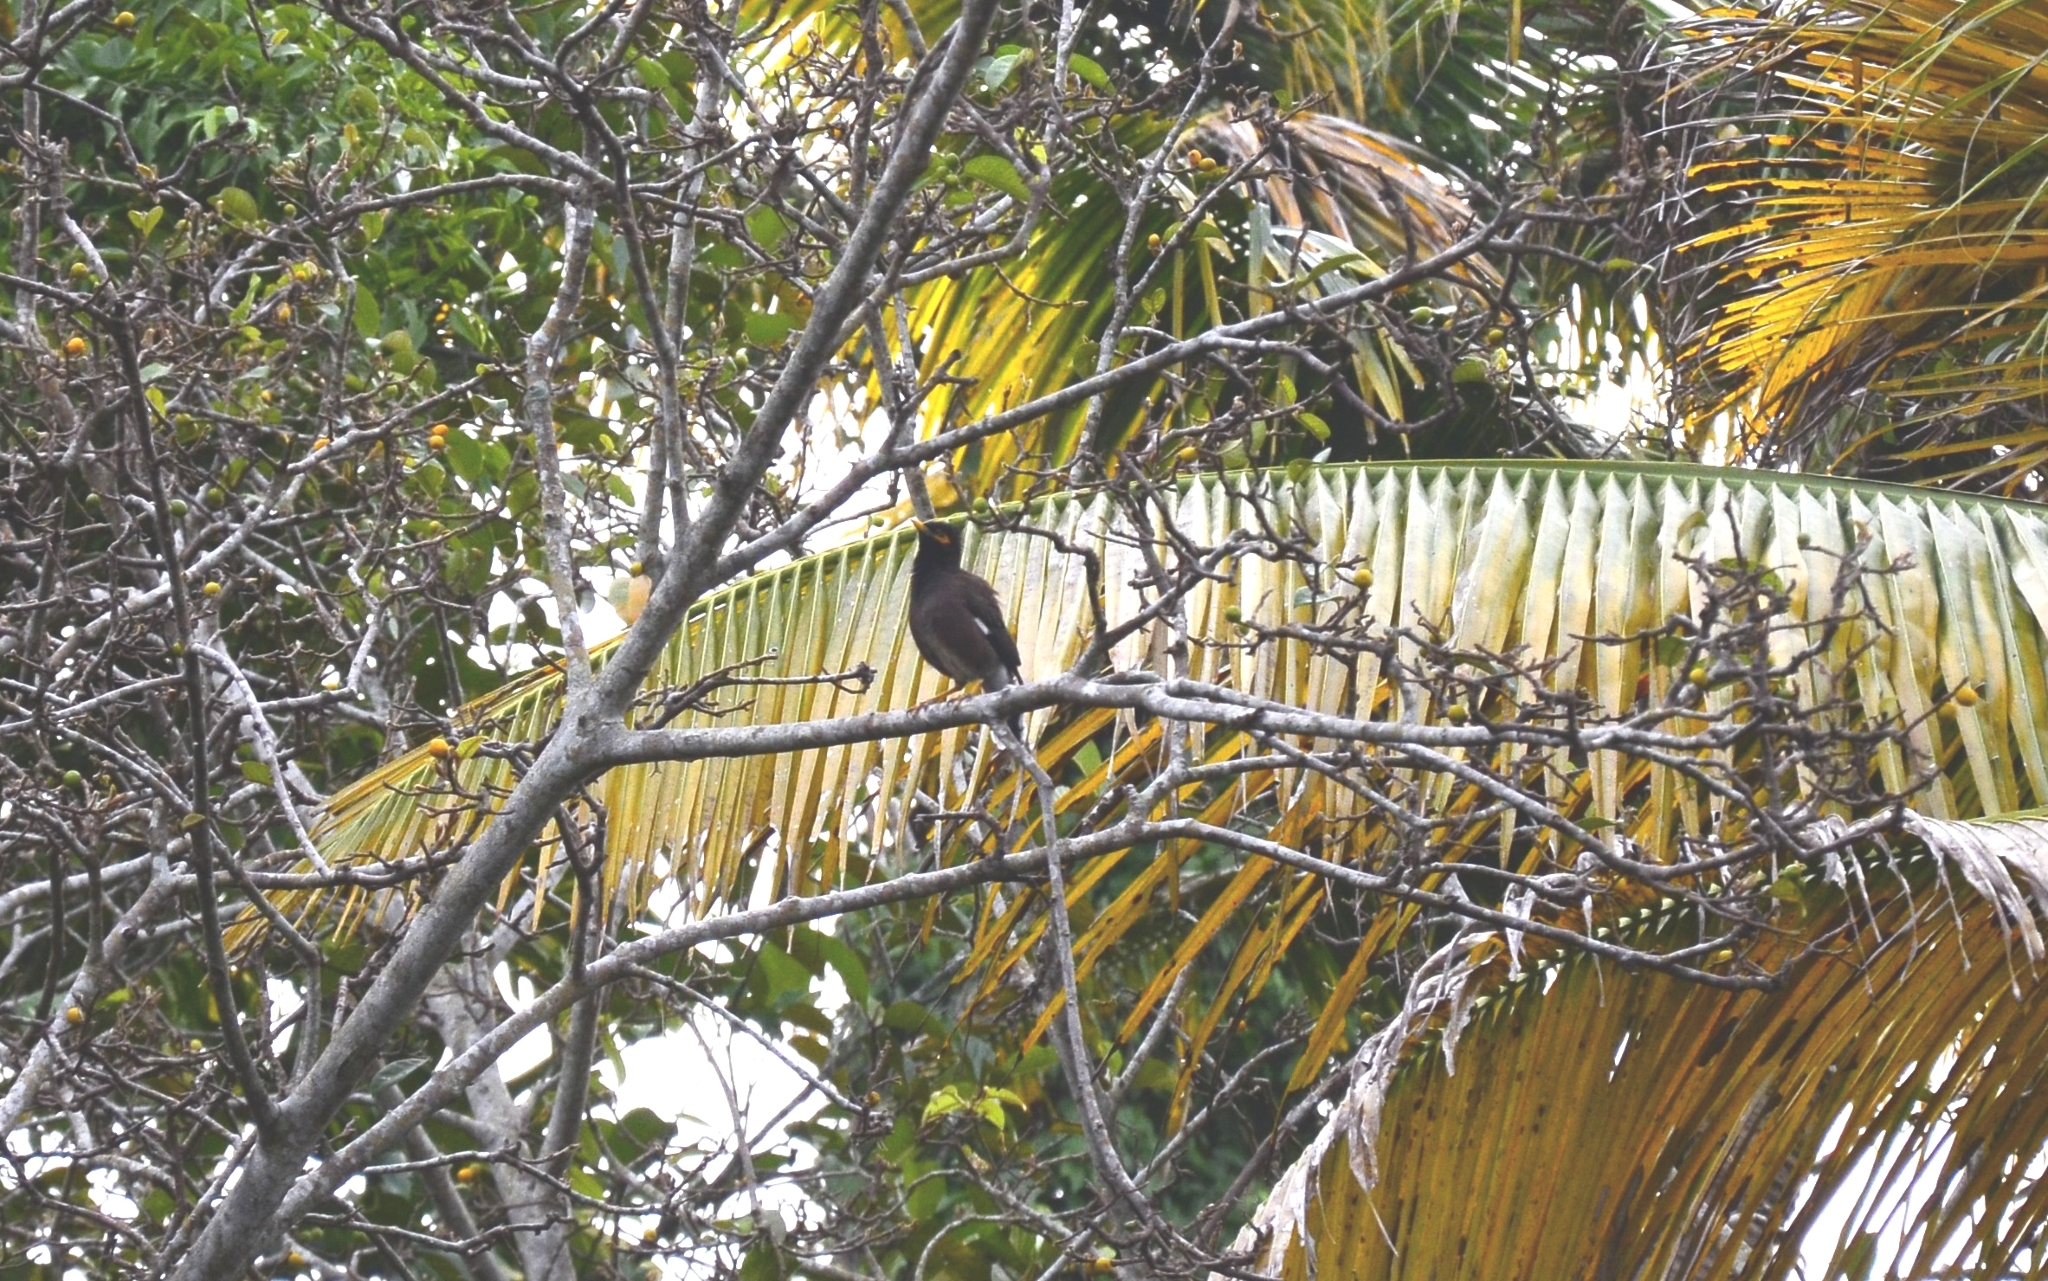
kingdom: Animalia
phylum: Chordata
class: Aves
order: Passeriformes
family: Sturnidae
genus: Acridotheres
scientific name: Acridotheres tristis
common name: Common myna
